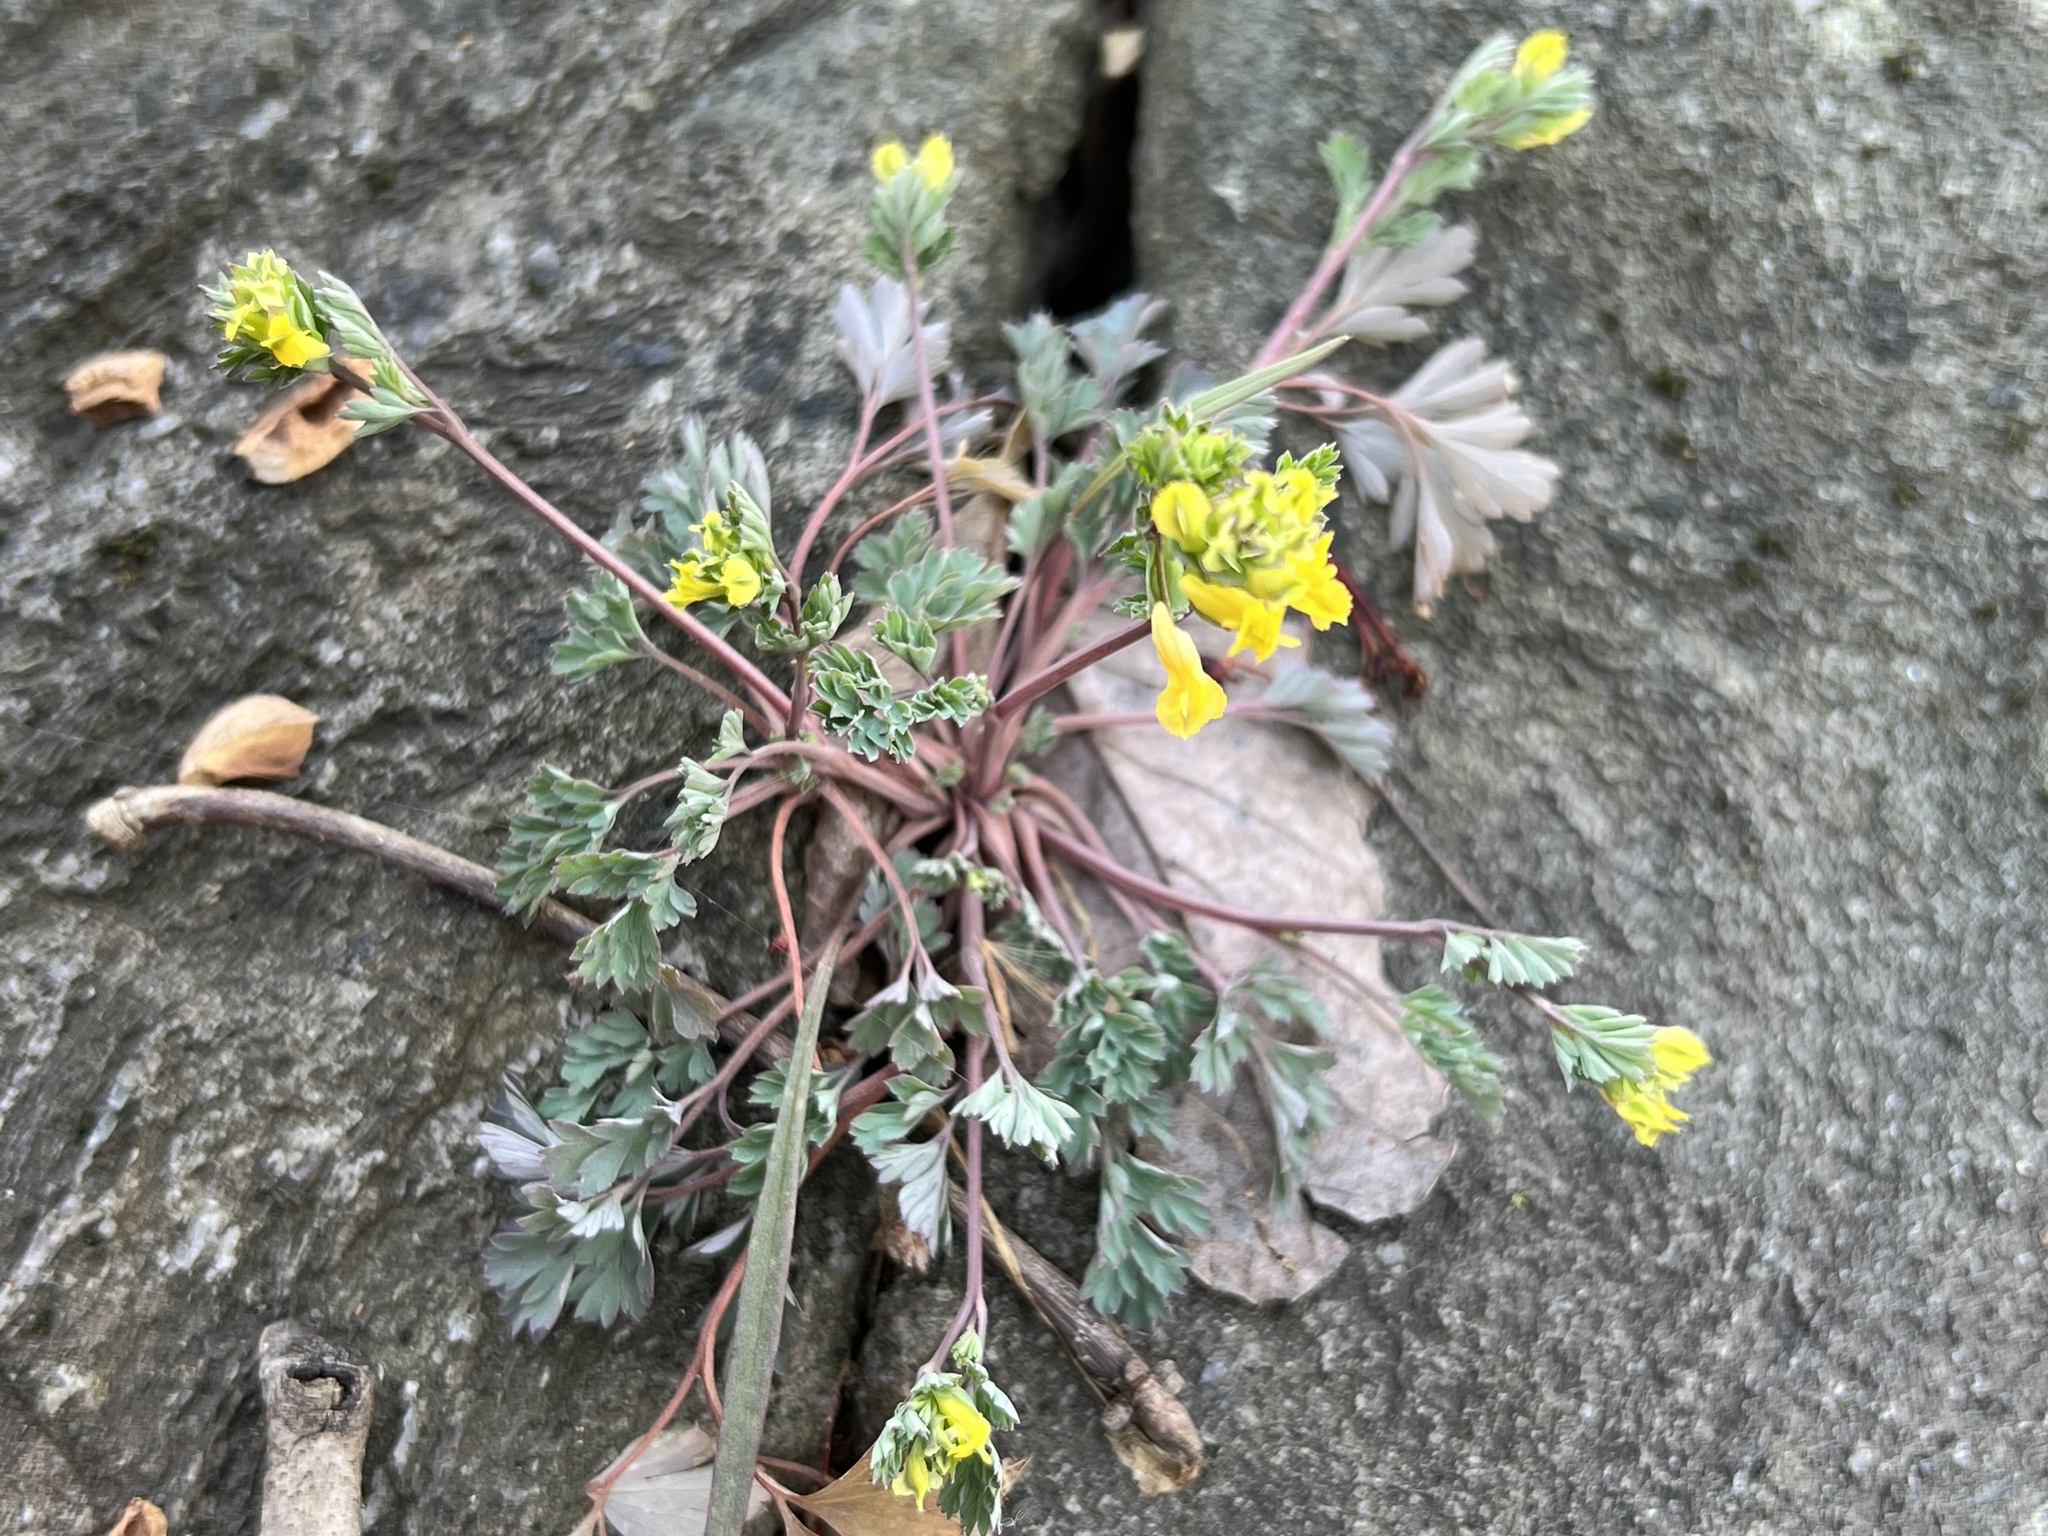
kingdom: Plantae
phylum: Tracheophyta
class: Magnoliopsida
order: Ranunculales
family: Papaveraceae
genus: Corydalis
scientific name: Corydalis flavula
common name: Yellow corydalis
